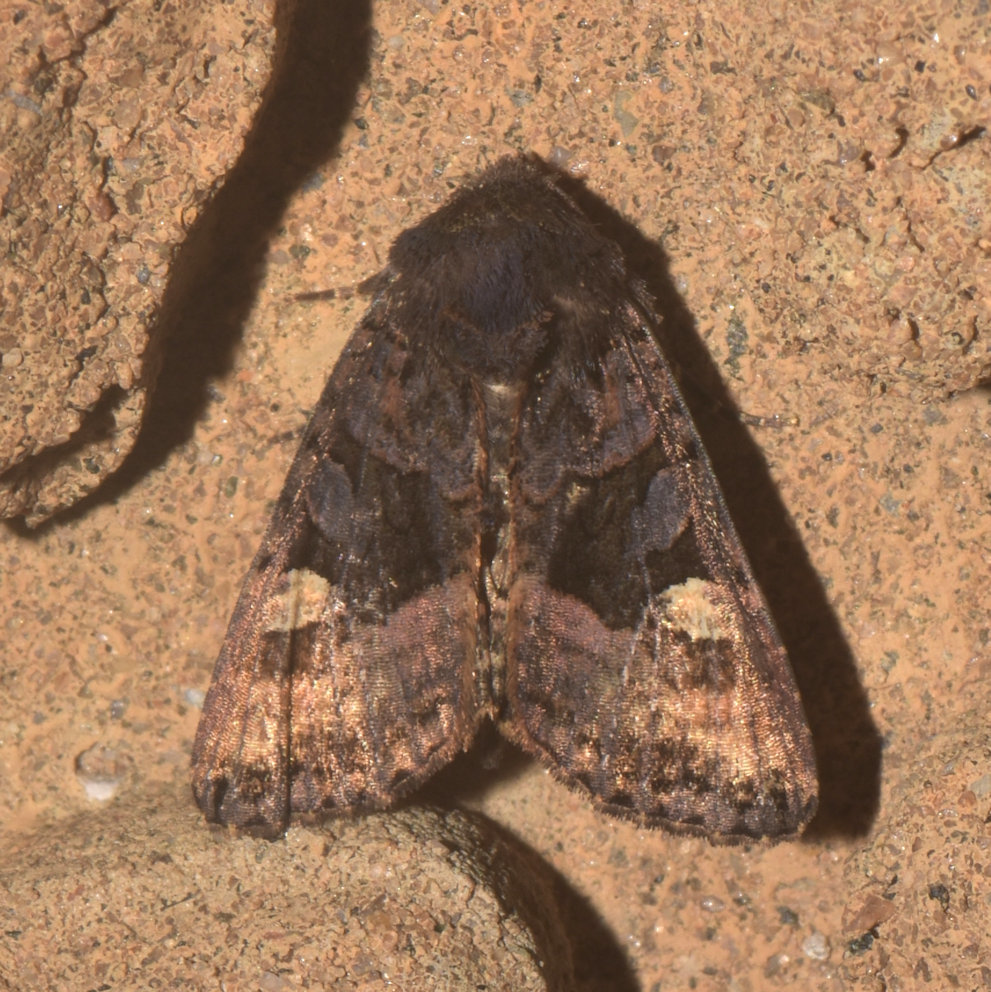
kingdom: Animalia
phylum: Arthropoda
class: Insecta
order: Lepidoptera
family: Noctuidae
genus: Euplexia
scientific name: Euplexia benesimilis
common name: American angle shades
